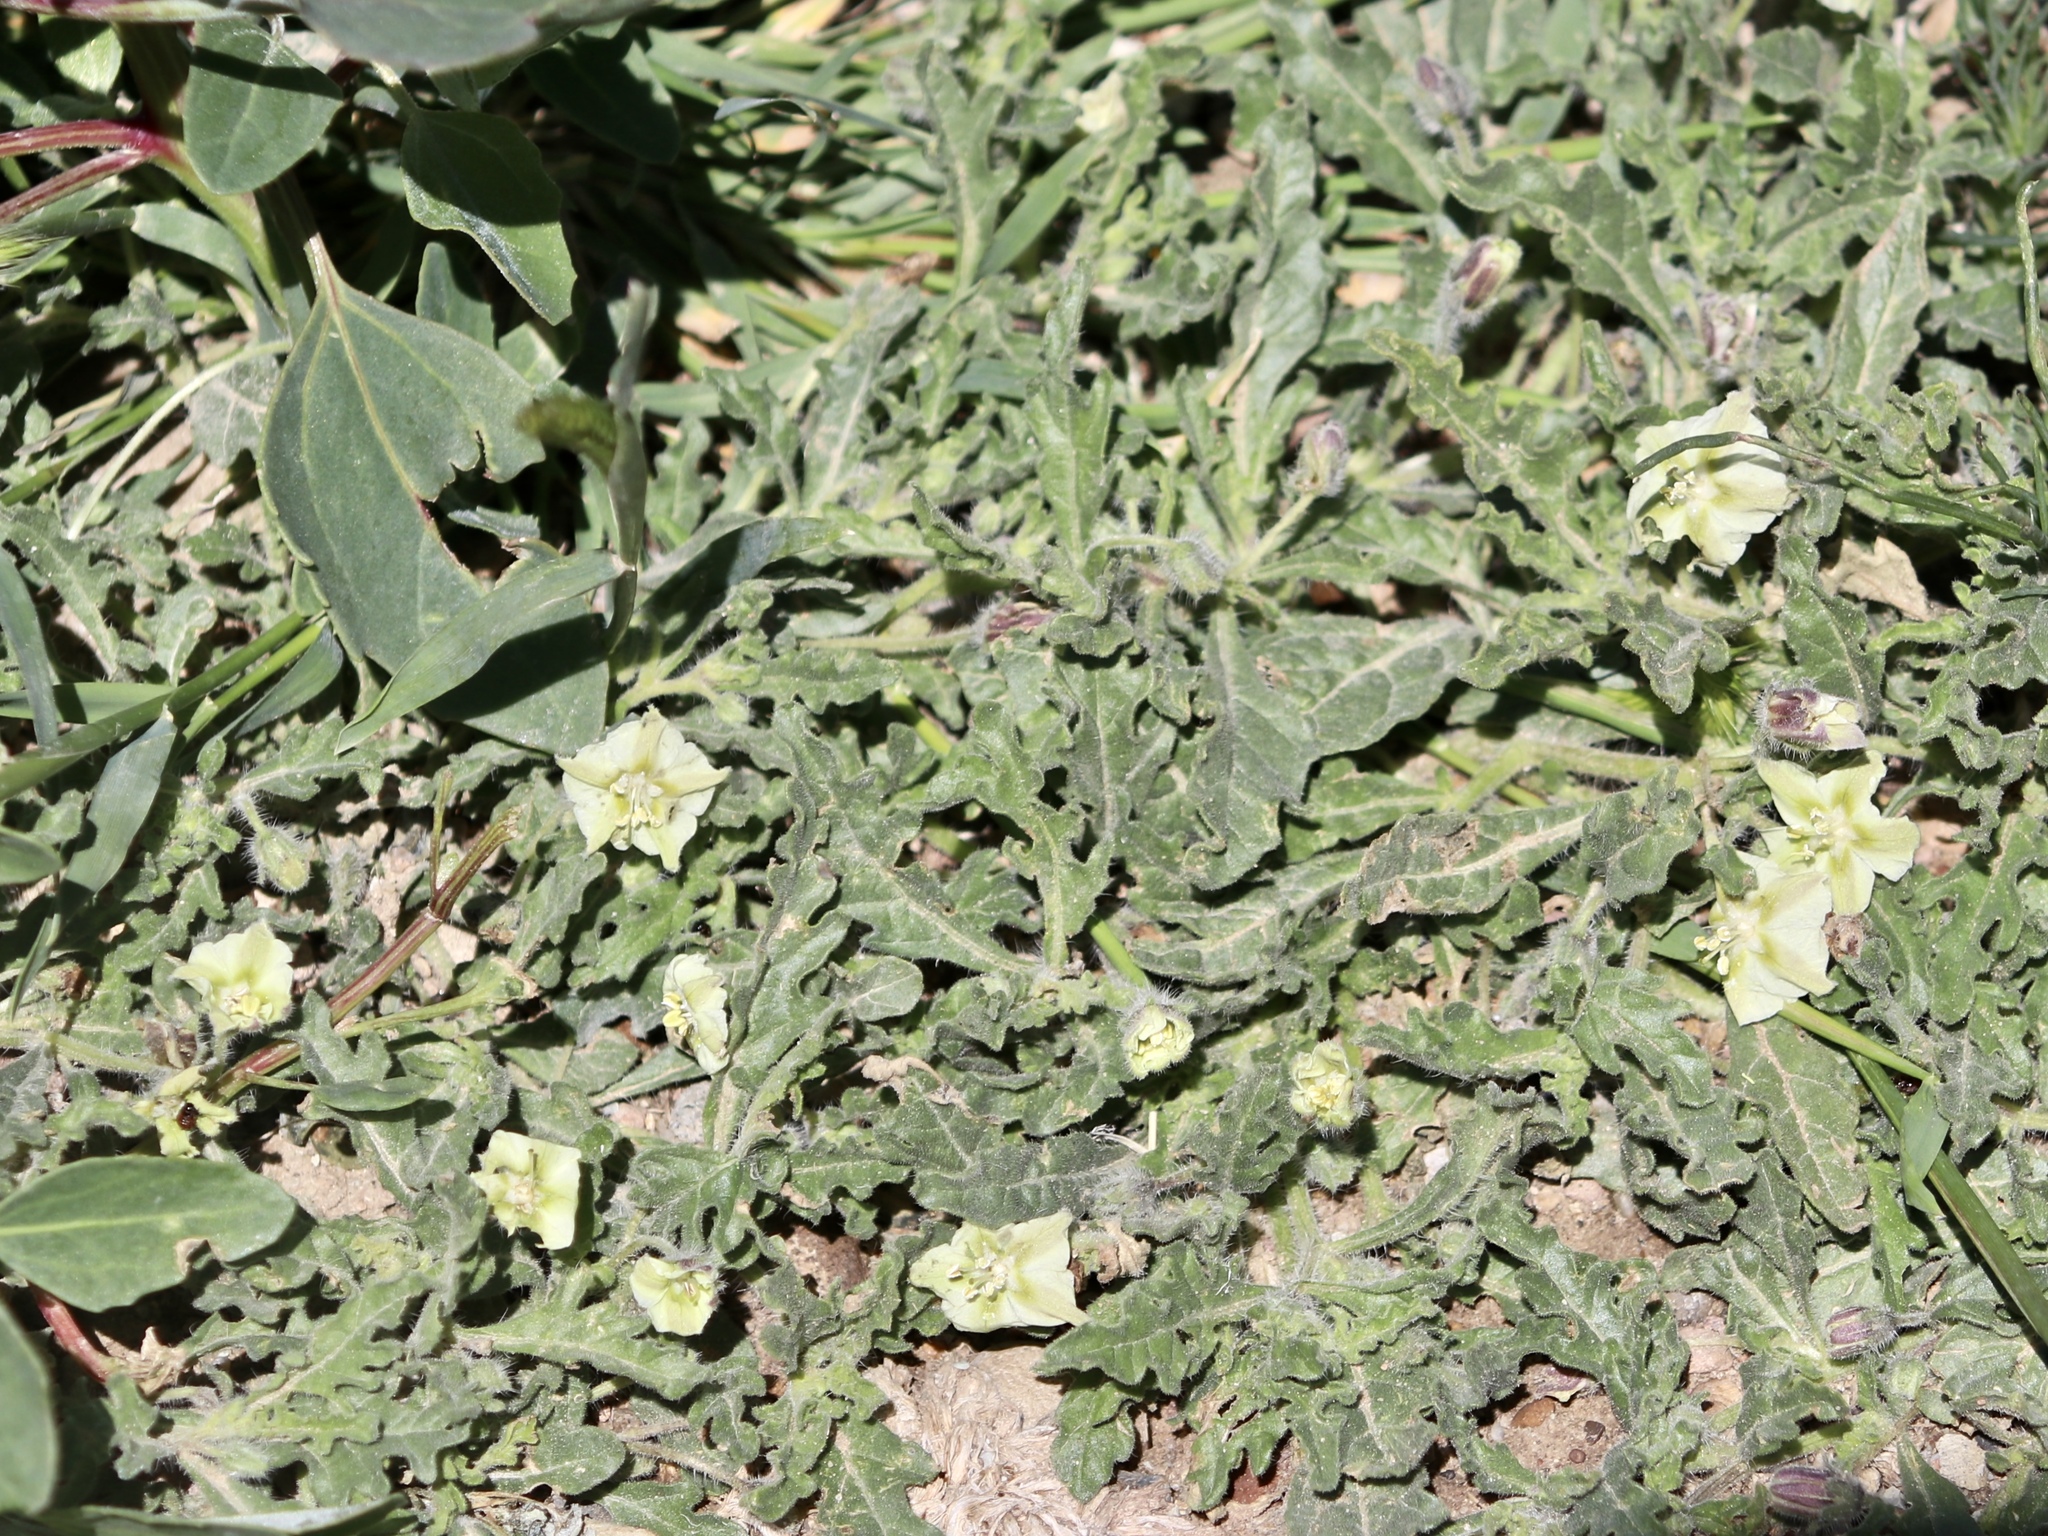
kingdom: Plantae
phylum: Tracheophyta
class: Magnoliopsida
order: Solanales
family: Solanaceae
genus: Chamaesaracha
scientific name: Chamaesaracha coniodes
